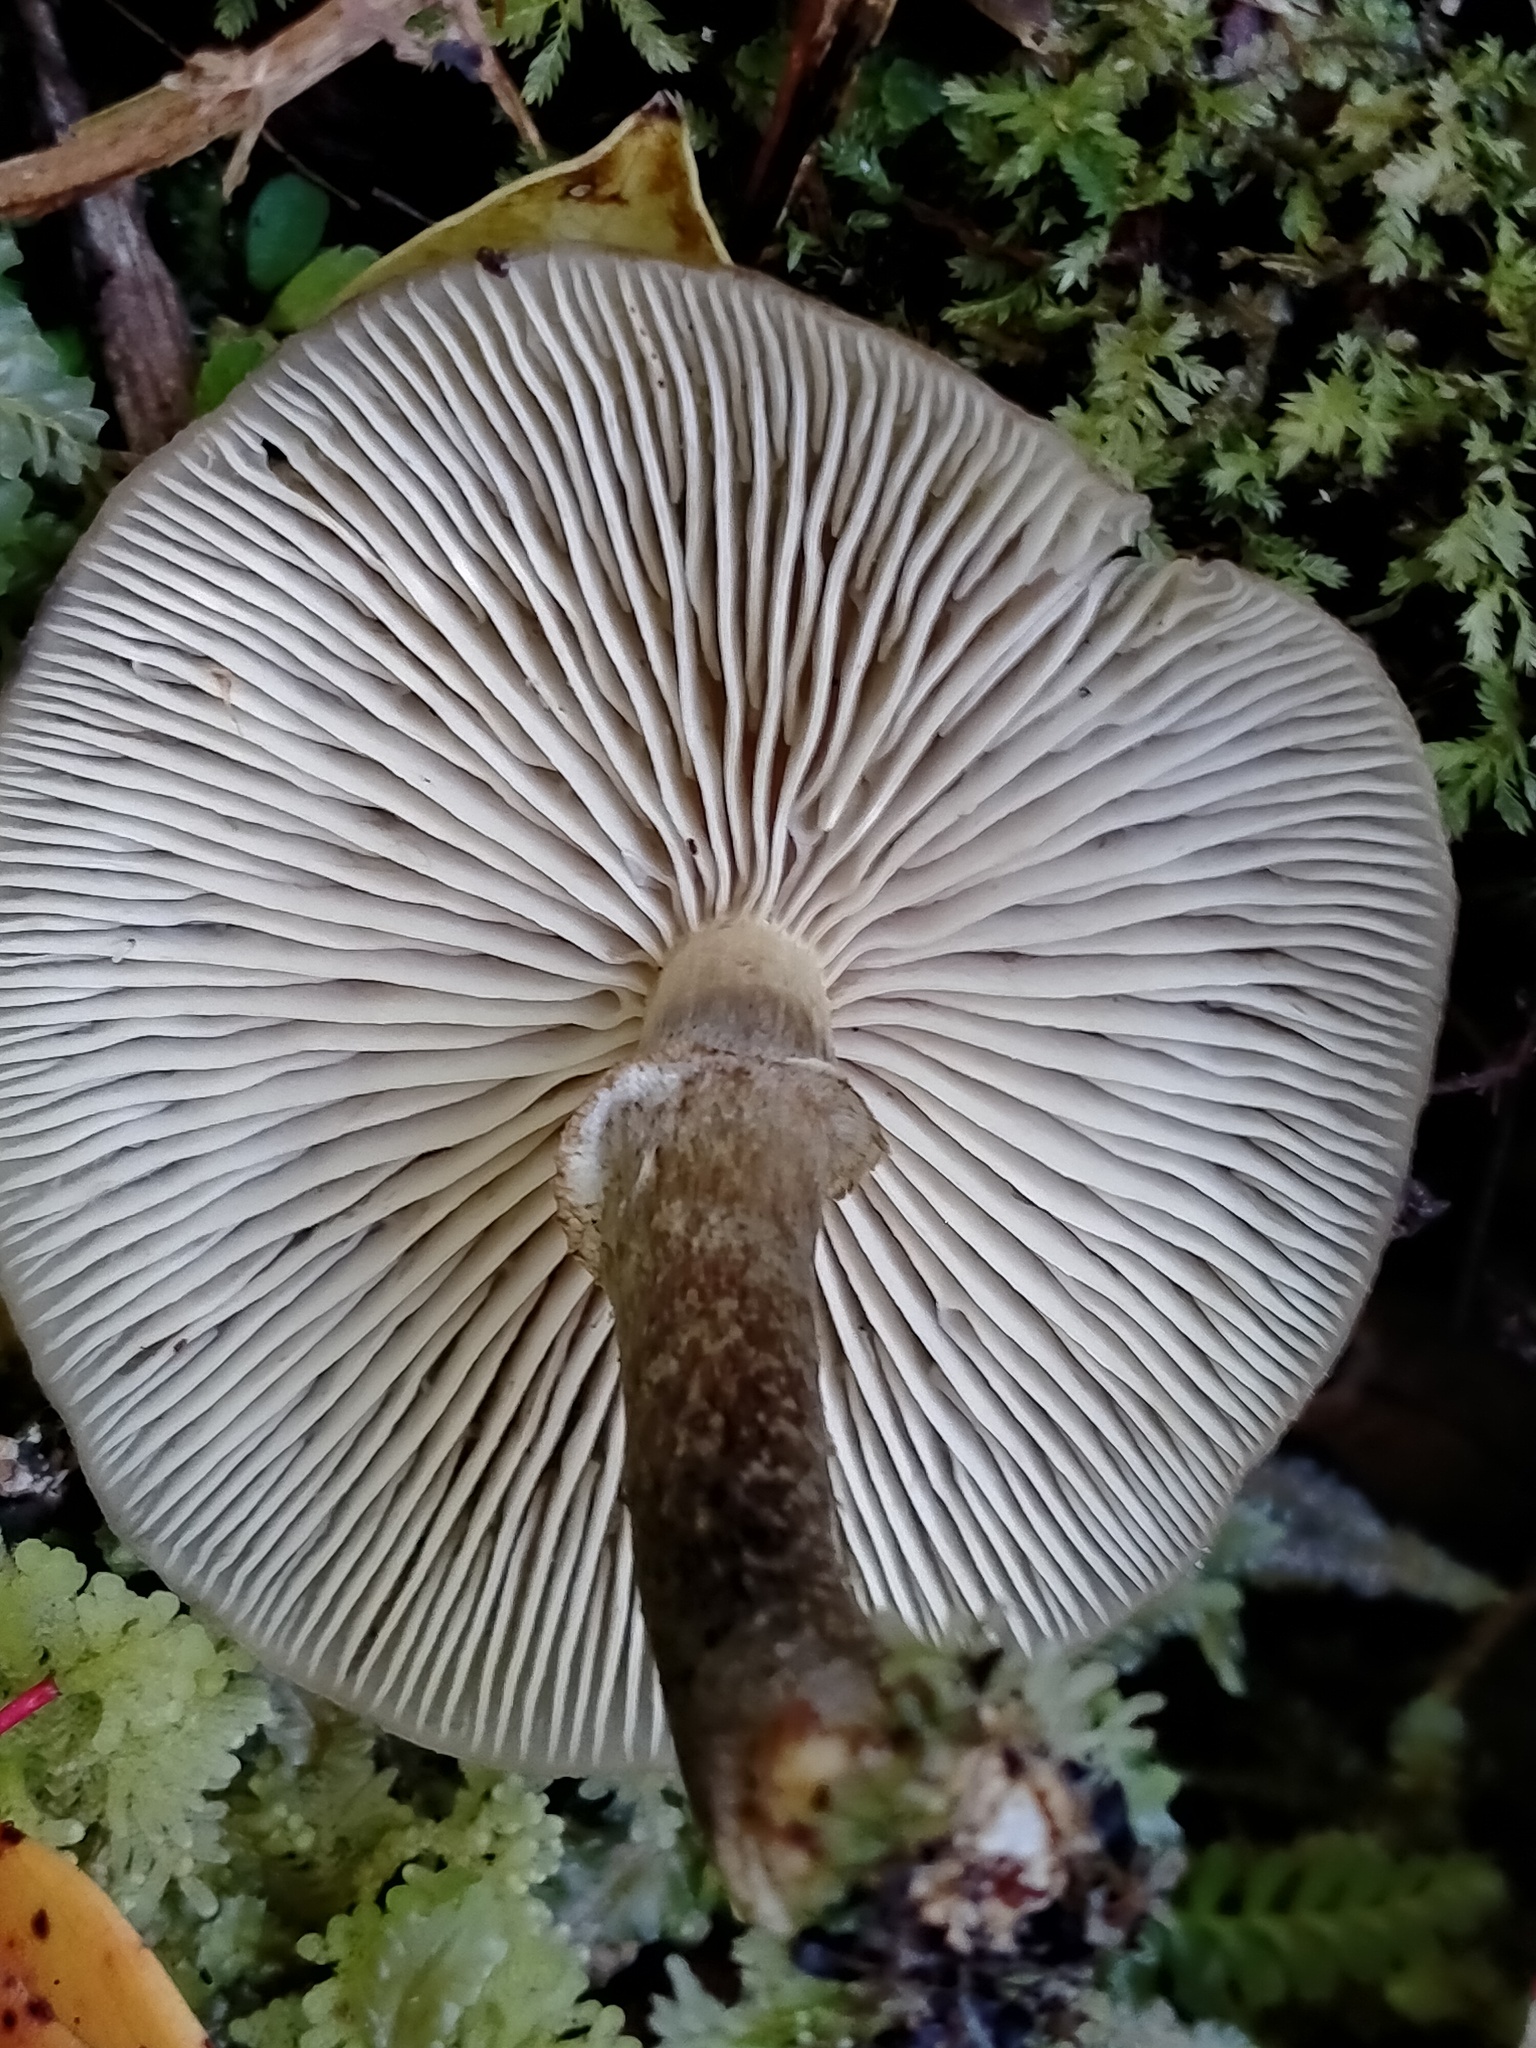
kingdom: Fungi
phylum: Basidiomycota
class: Agaricomycetes
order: Agaricales
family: Physalacriaceae
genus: Armillaria
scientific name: Armillaria novae-zelandiae
